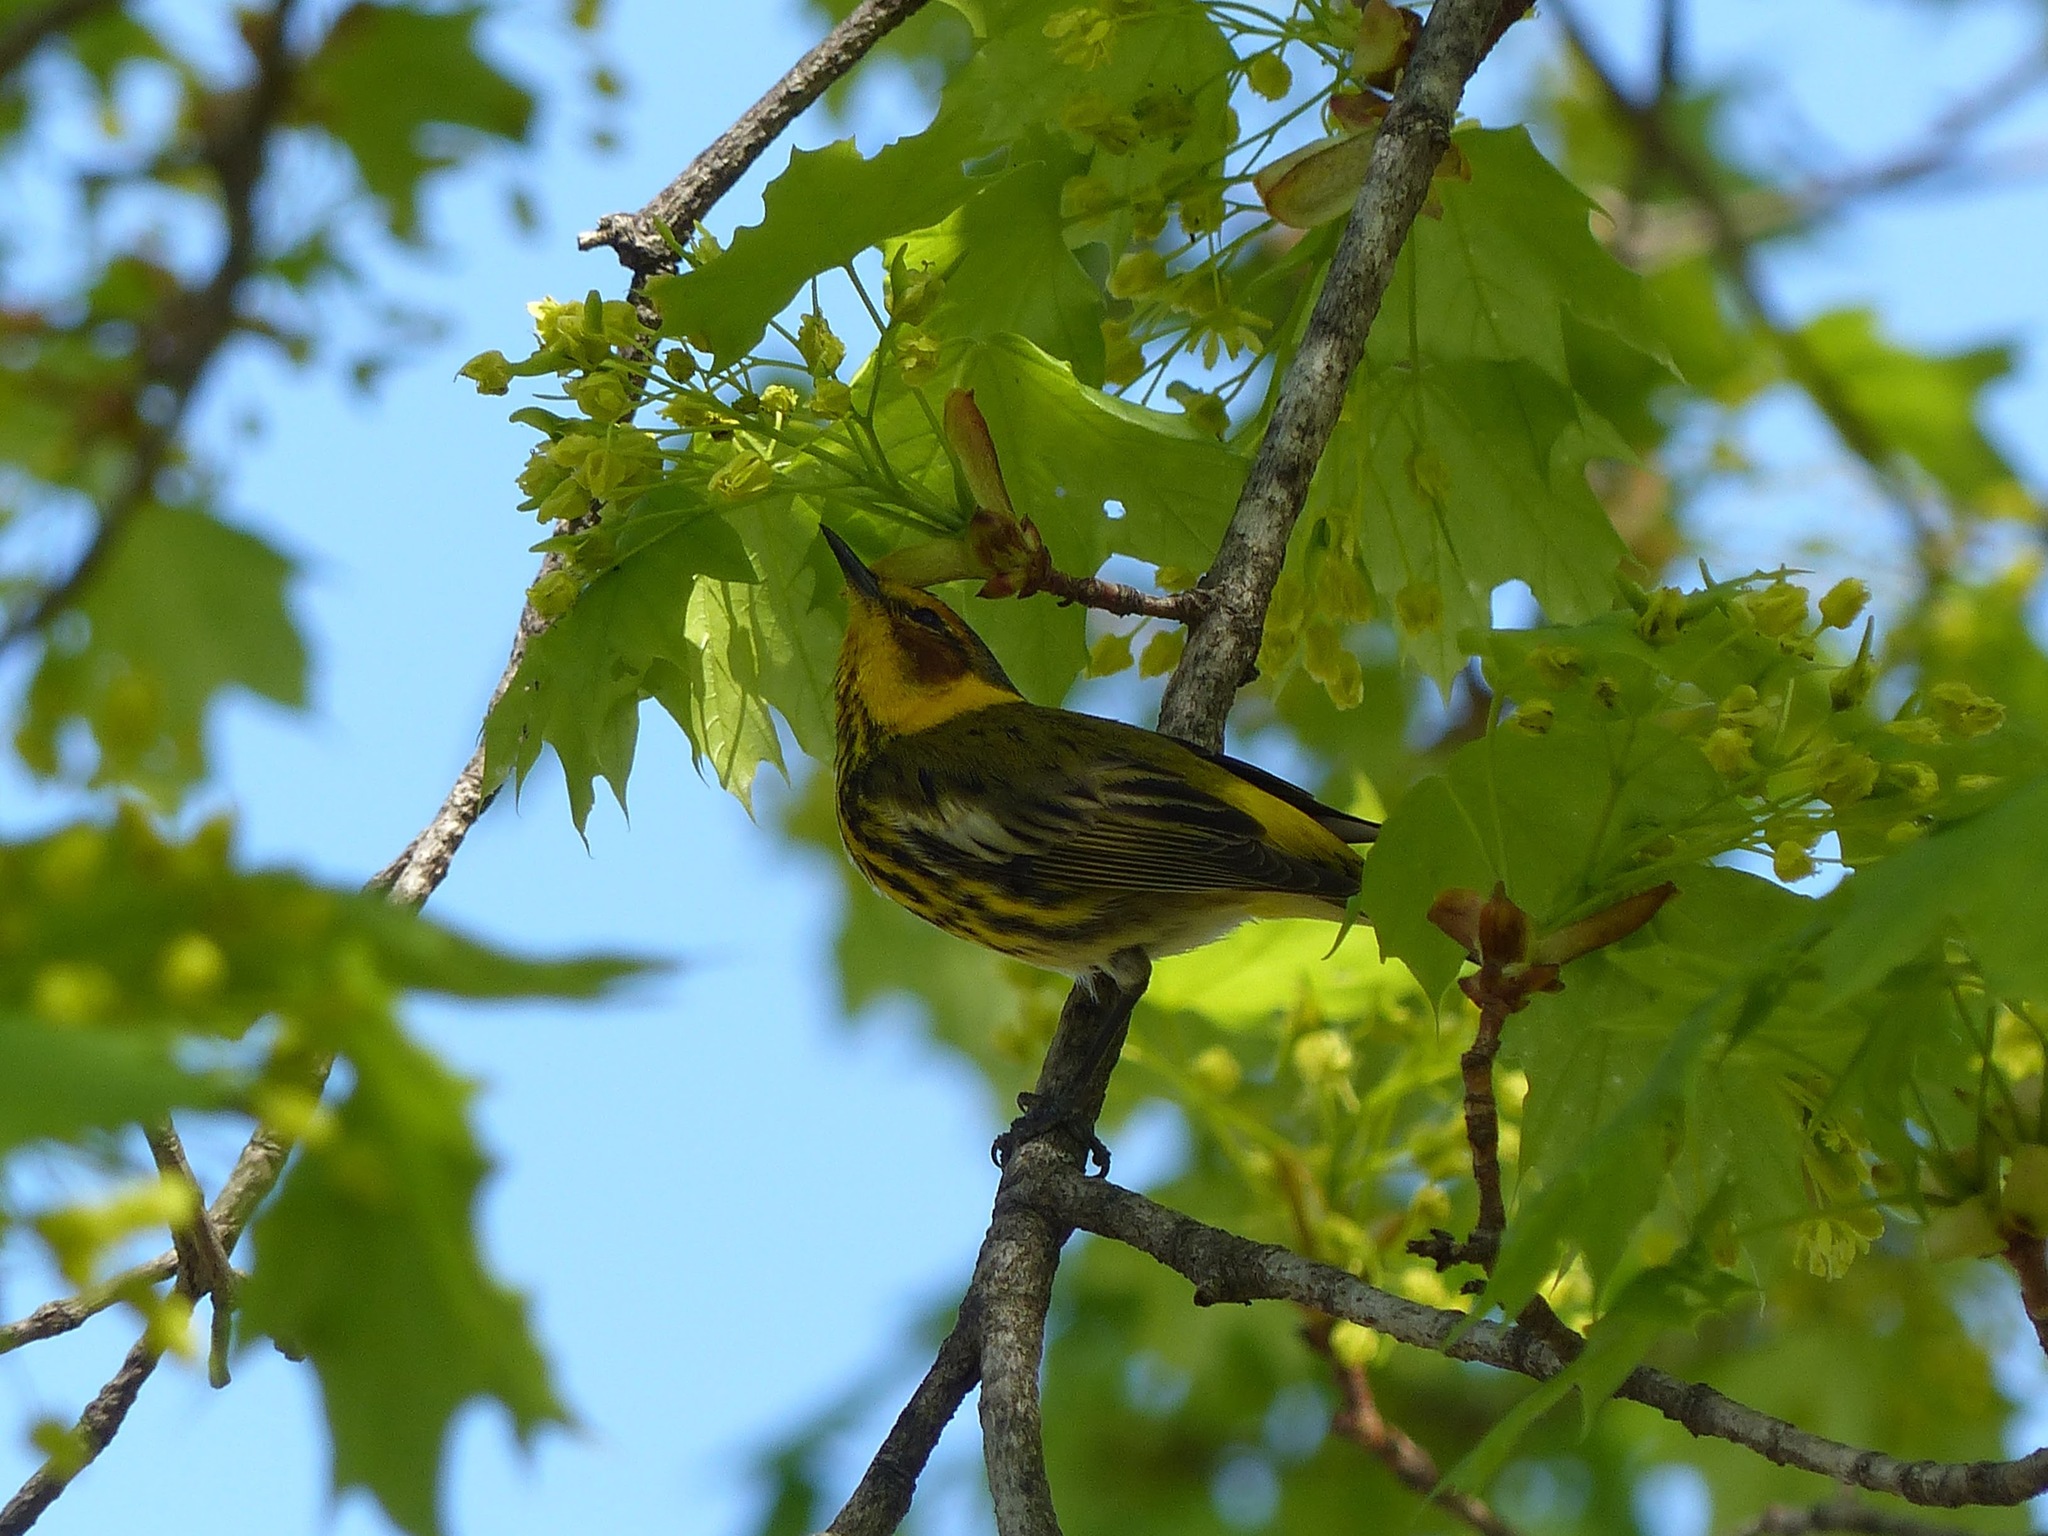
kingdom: Animalia
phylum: Chordata
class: Aves
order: Passeriformes
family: Parulidae
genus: Setophaga
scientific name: Setophaga tigrina
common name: Cape may warbler
